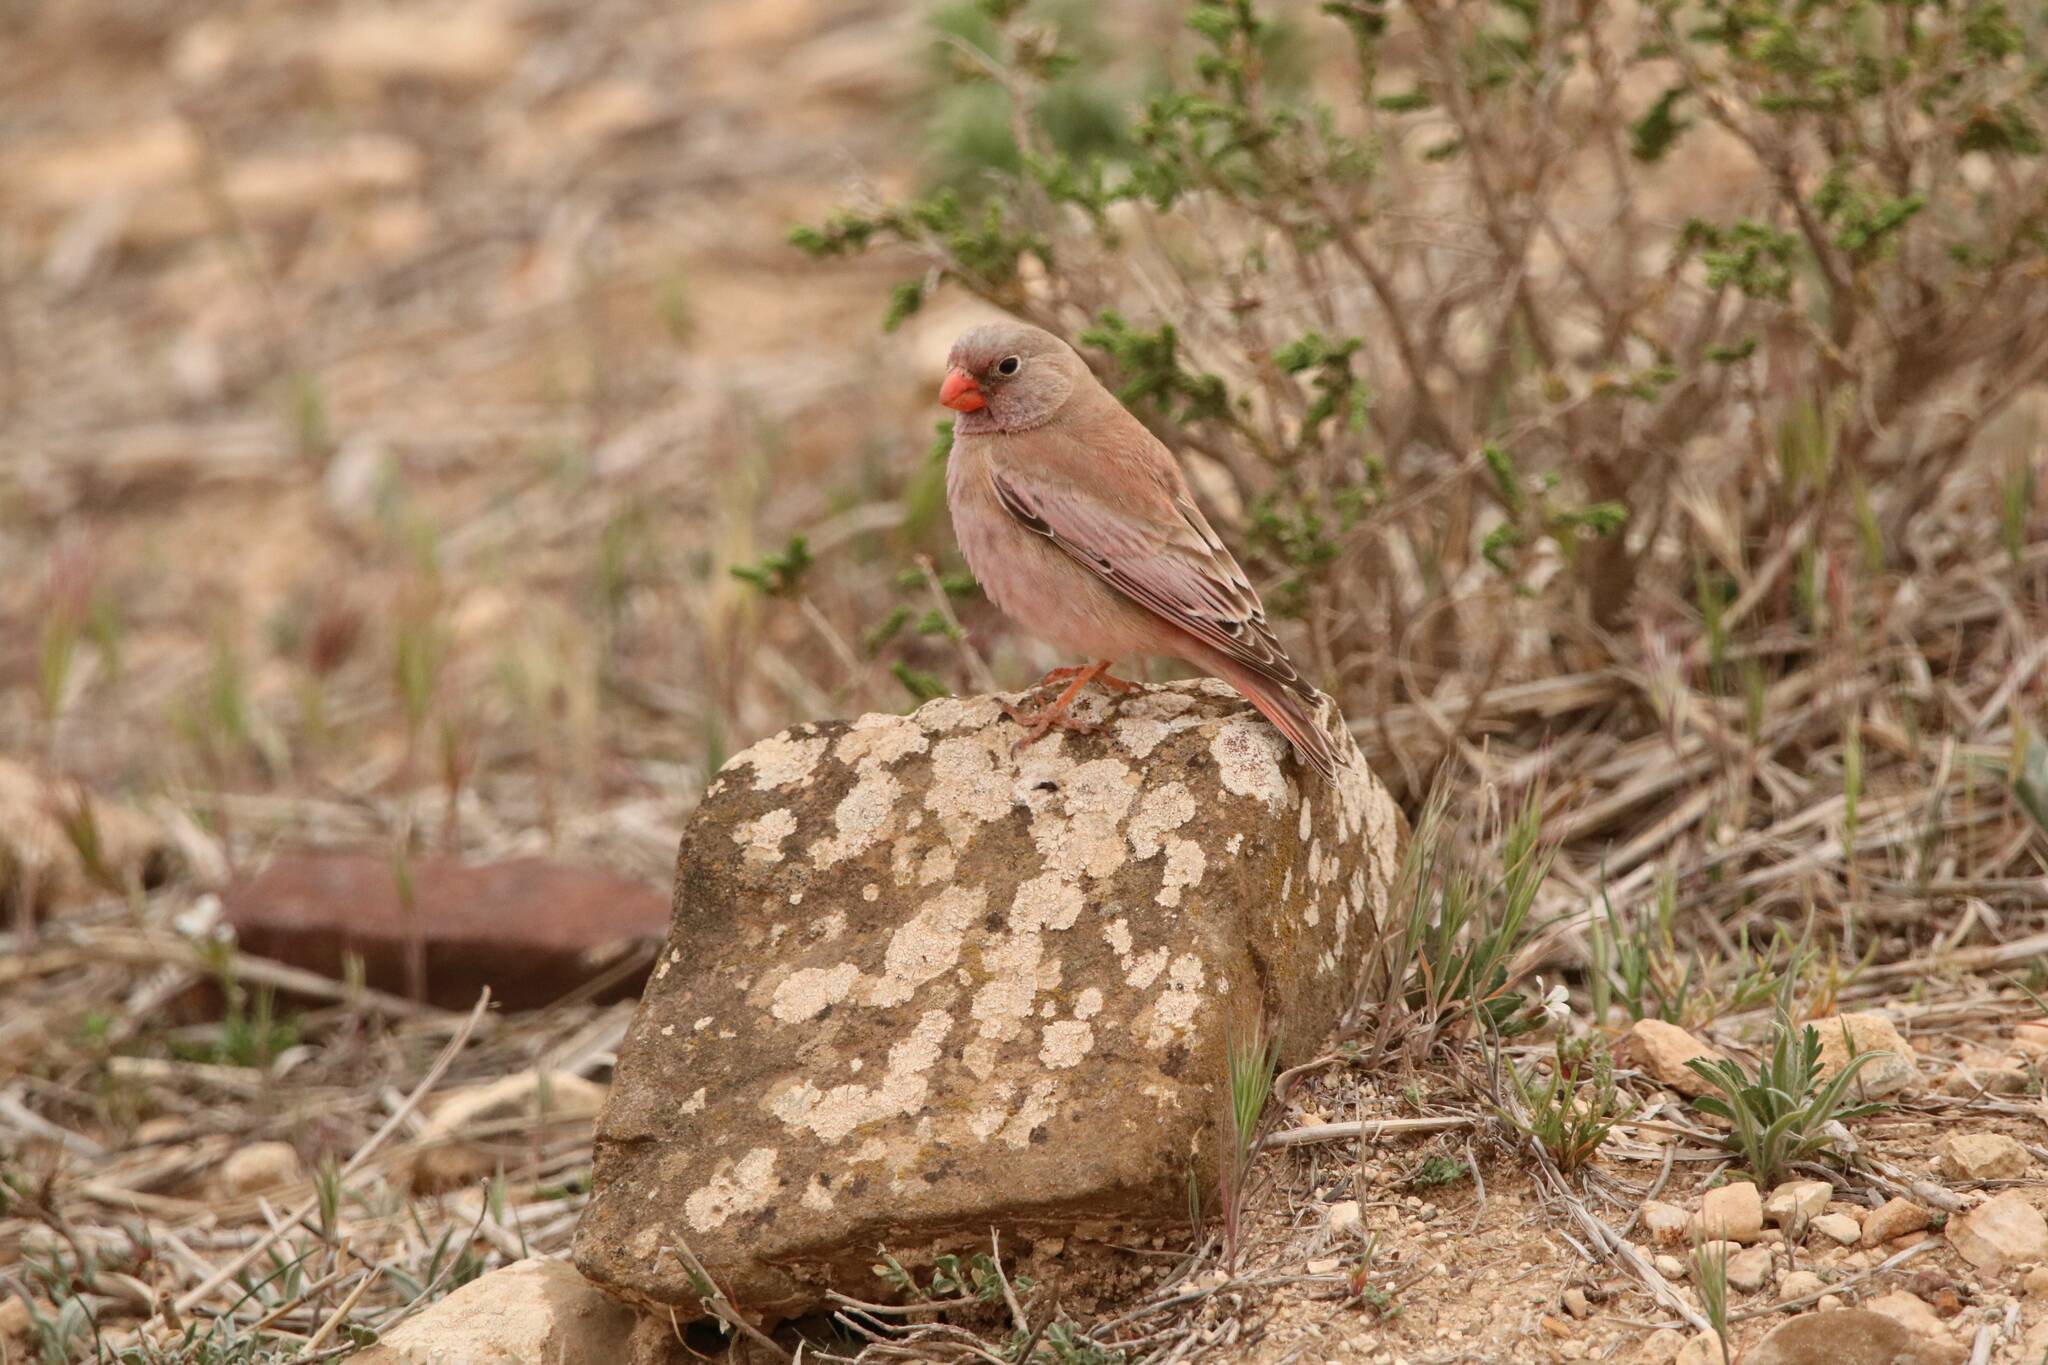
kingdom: Animalia
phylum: Chordata
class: Aves
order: Passeriformes
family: Fringillidae
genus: Bucanetes
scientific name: Bucanetes githagineus
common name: Trumpeter finch
